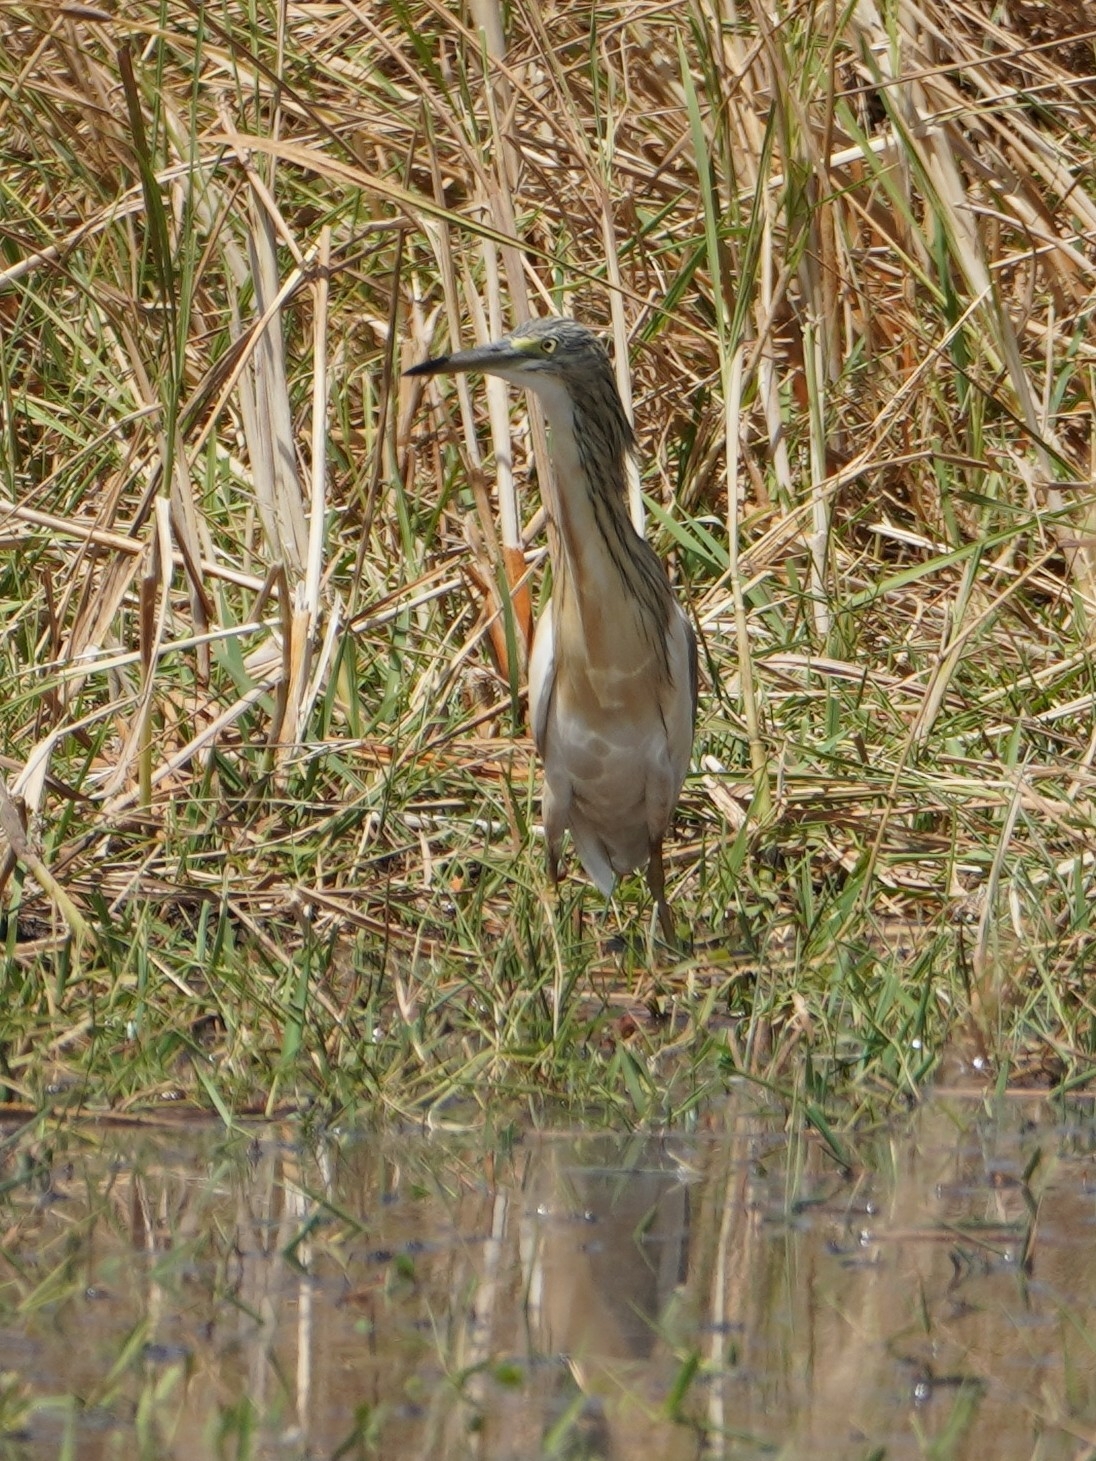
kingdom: Animalia
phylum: Chordata
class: Aves
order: Pelecaniformes
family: Ardeidae
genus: Ardeola
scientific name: Ardeola ralloides
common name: Squacco heron
